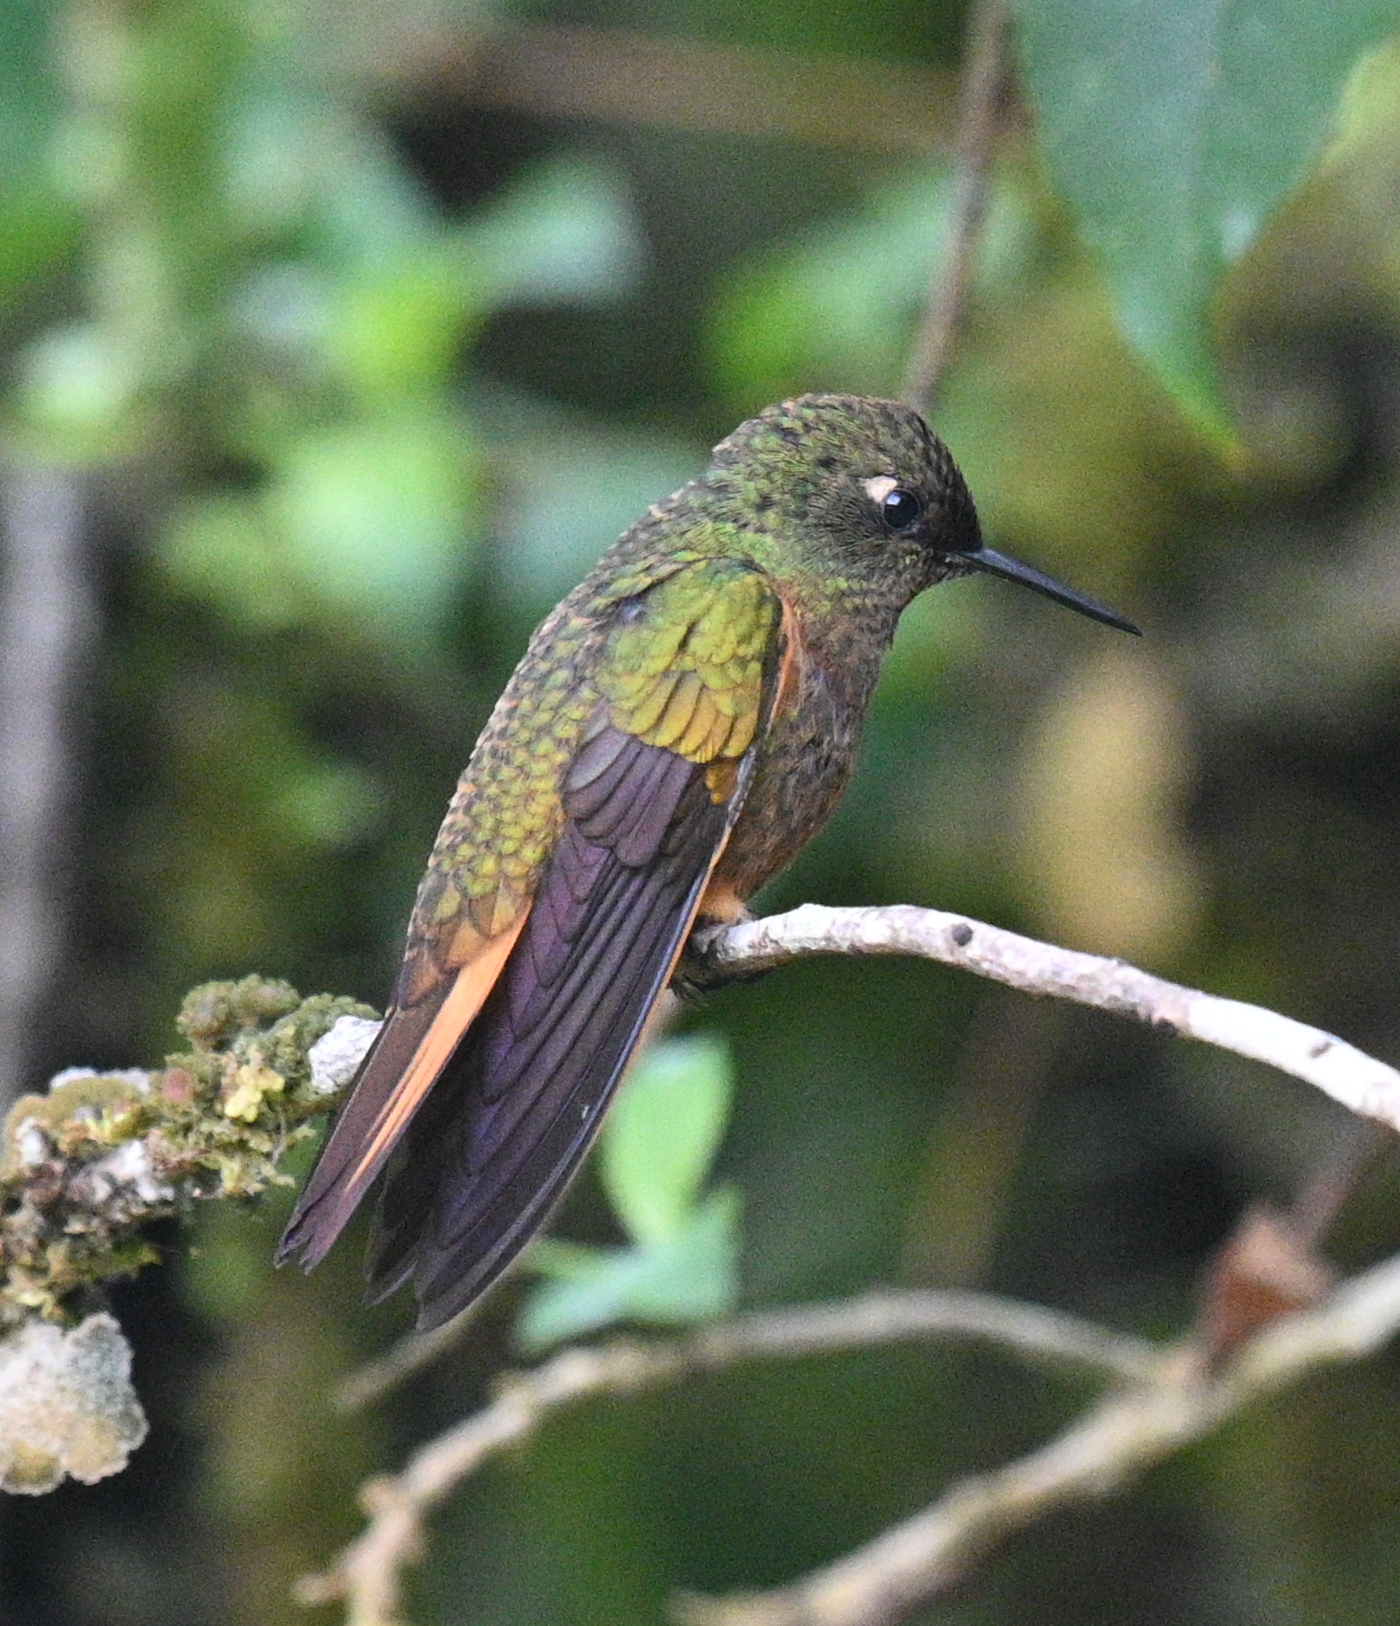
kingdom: Animalia
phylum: Chordata
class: Aves
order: Apodiformes
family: Trochilidae
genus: Boissonneaua
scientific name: Boissonneaua matthewsii
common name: Chestnut-breasted coronet
